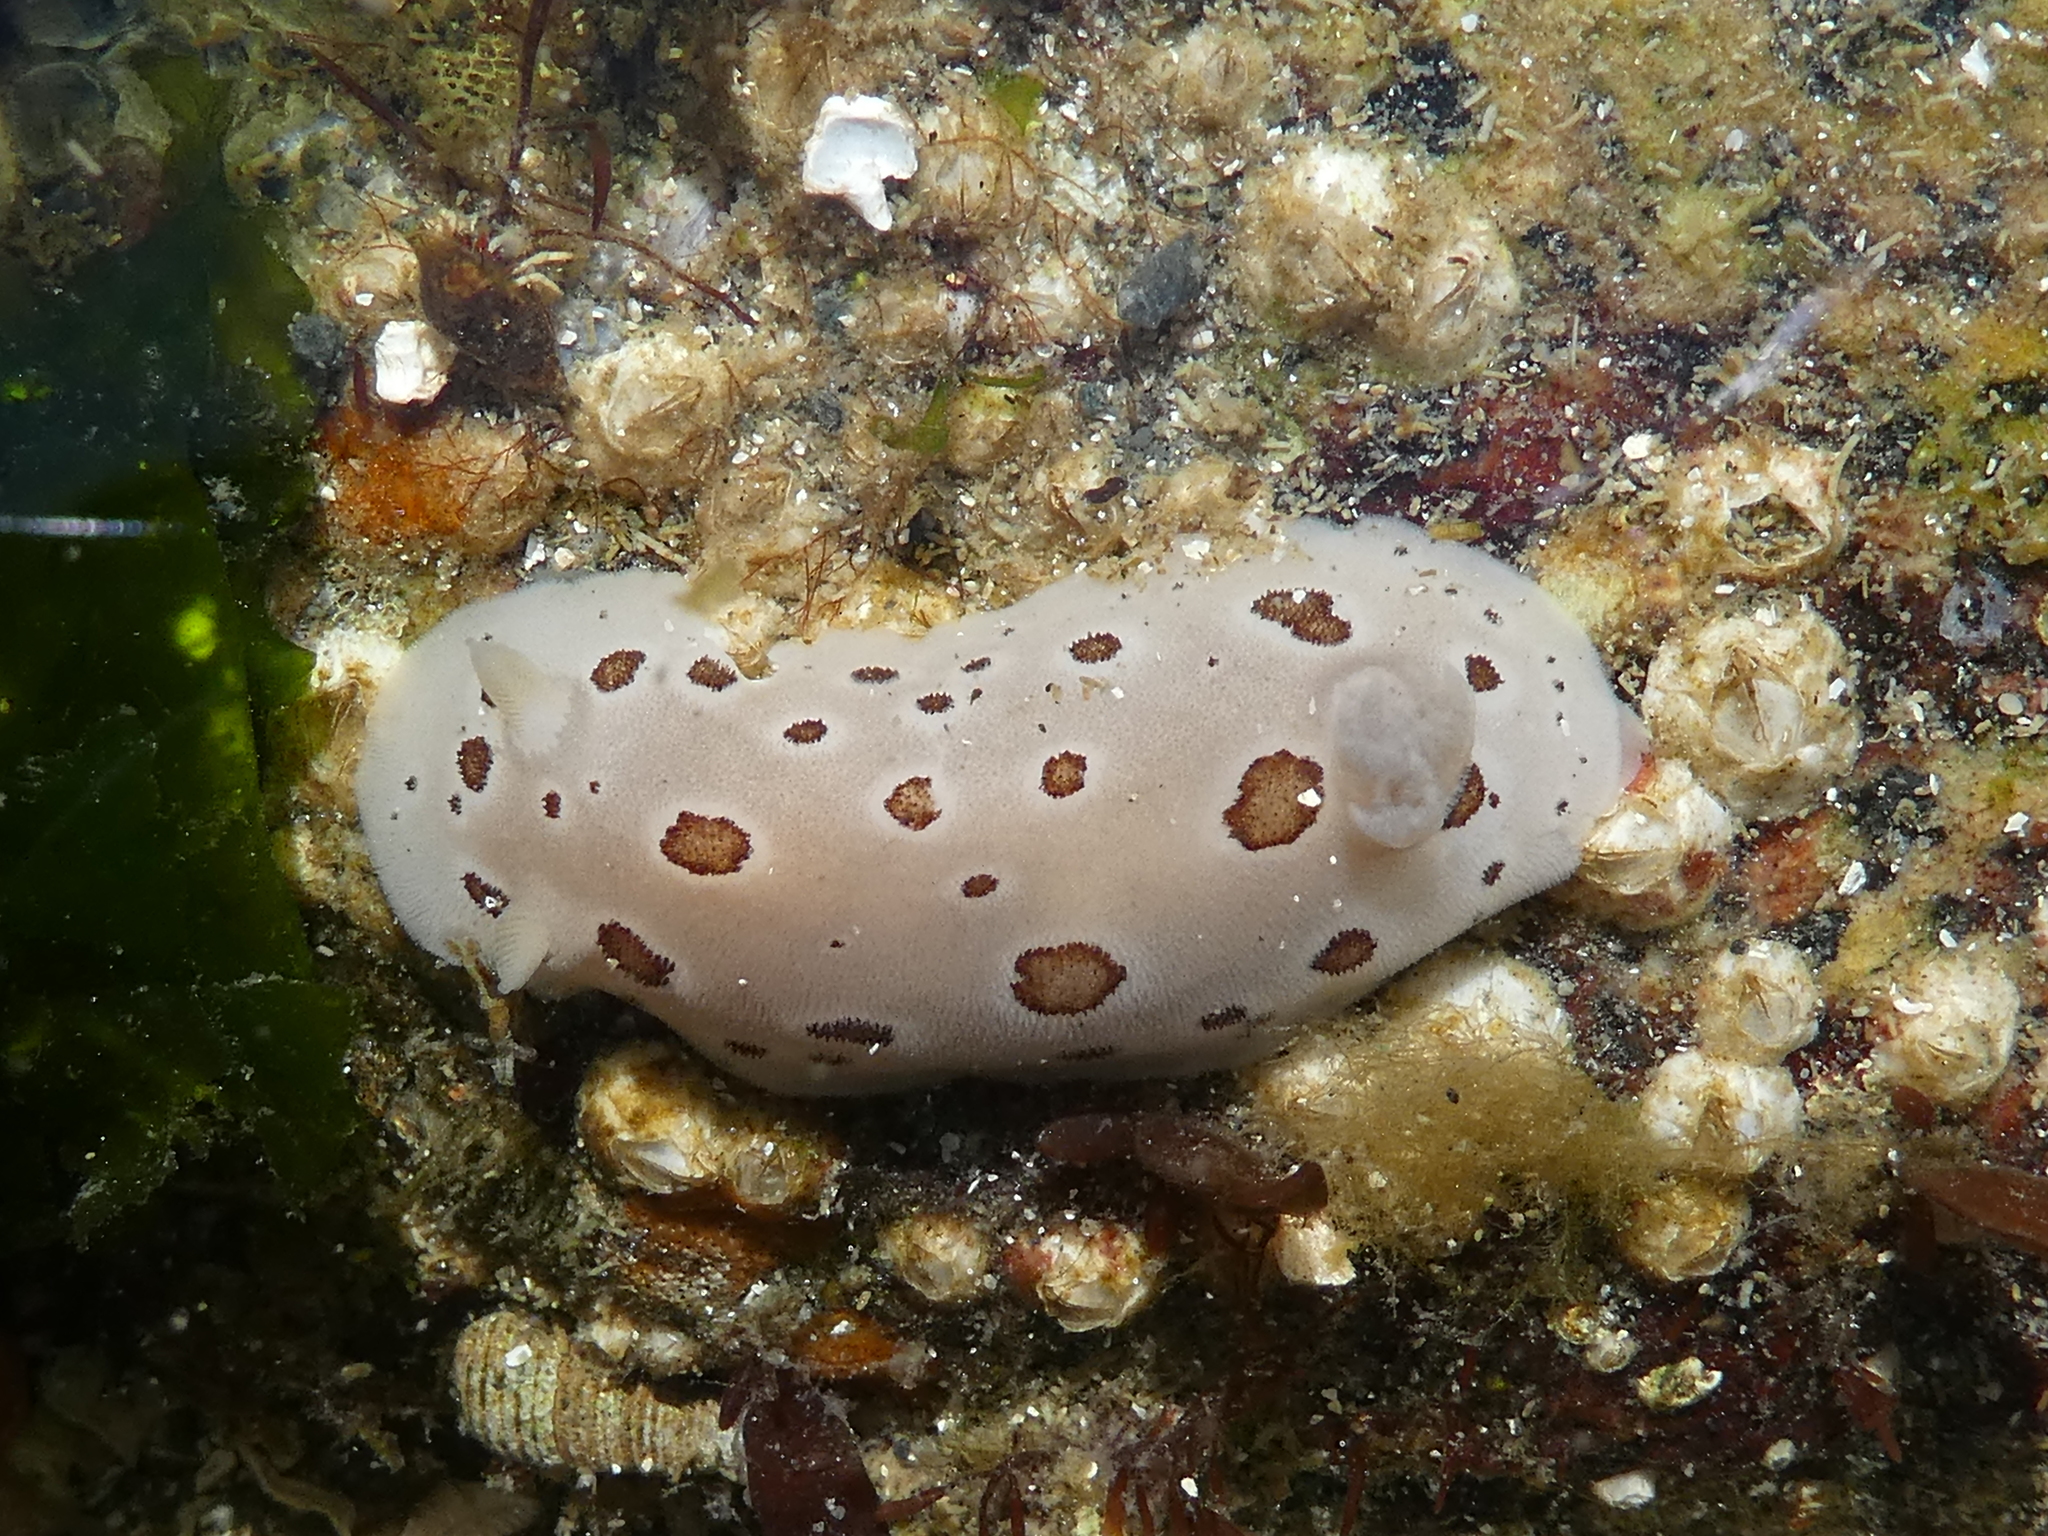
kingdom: Animalia
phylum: Mollusca
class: Gastropoda
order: Nudibranchia
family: Discodorididae
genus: Diaulula
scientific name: Diaulula odonoghuei
